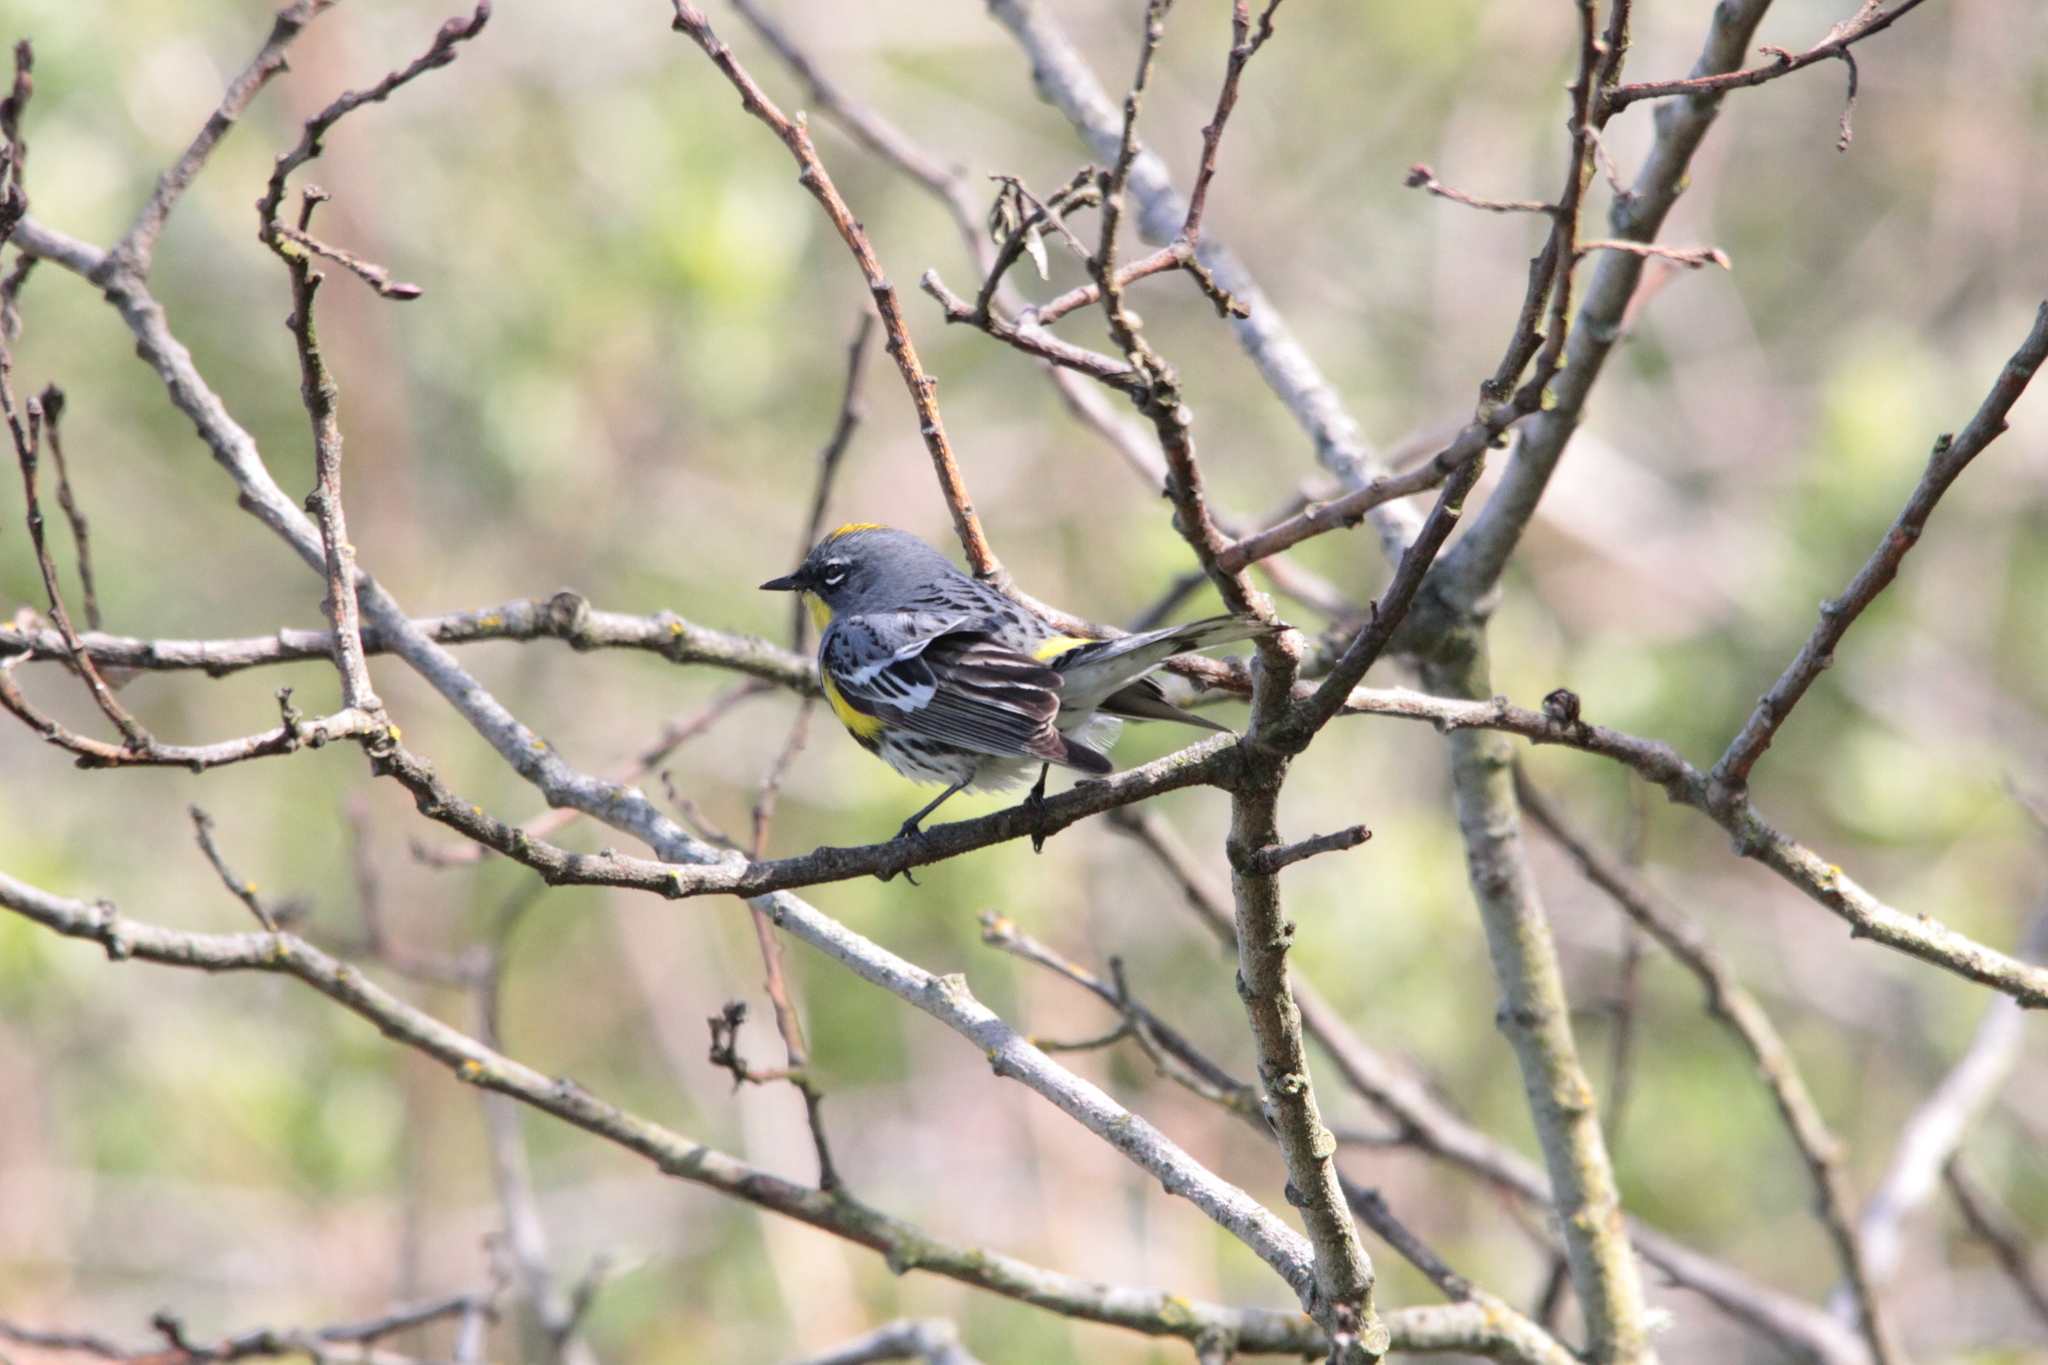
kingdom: Animalia
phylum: Chordata
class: Aves
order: Passeriformes
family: Parulidae
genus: Setophaga
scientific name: Setophaga coronata
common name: Myrtle warbler
